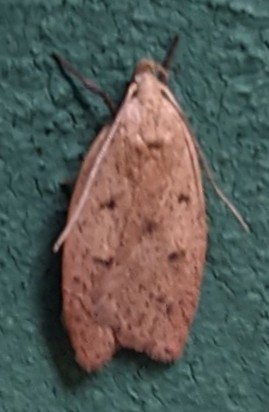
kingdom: Animalia
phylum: Arthropoda
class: Insecta
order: Lepidoptera
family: Peleopodidae
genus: Machimia
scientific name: Machimia tentoriferella
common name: Gold-striped leaftier moth
